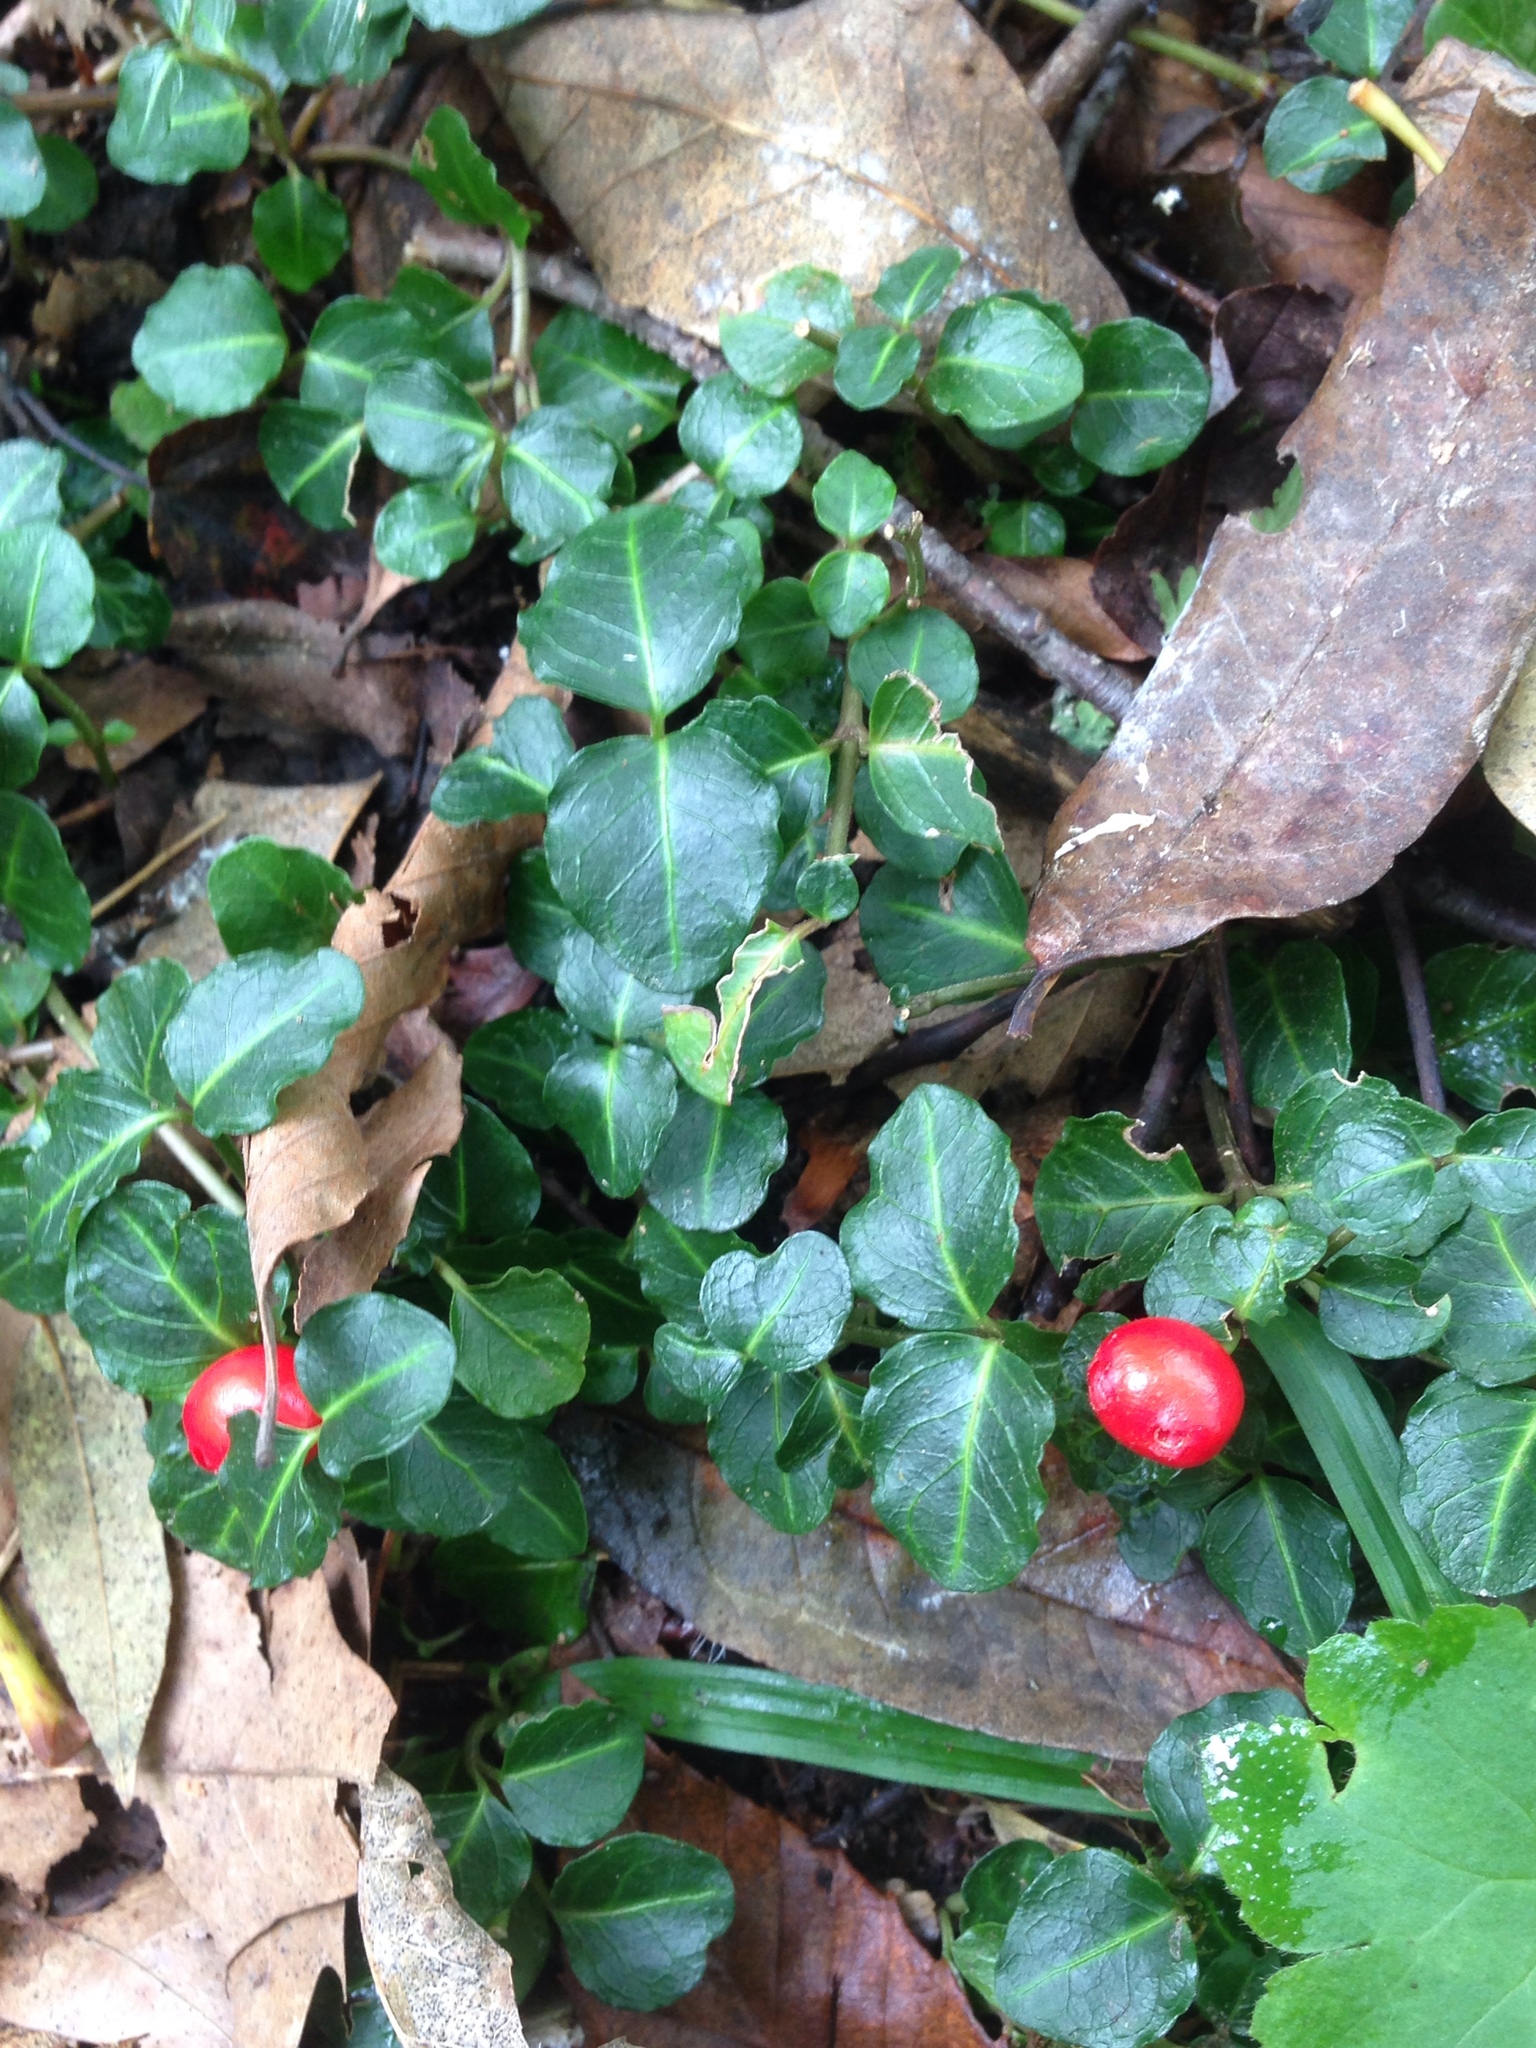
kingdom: Plantae
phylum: Tracheophyta
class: Magnoliopsida
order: Gentianales
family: Rubiaceae
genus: Mitchella
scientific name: Mitchella repens
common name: Partridge-berry
